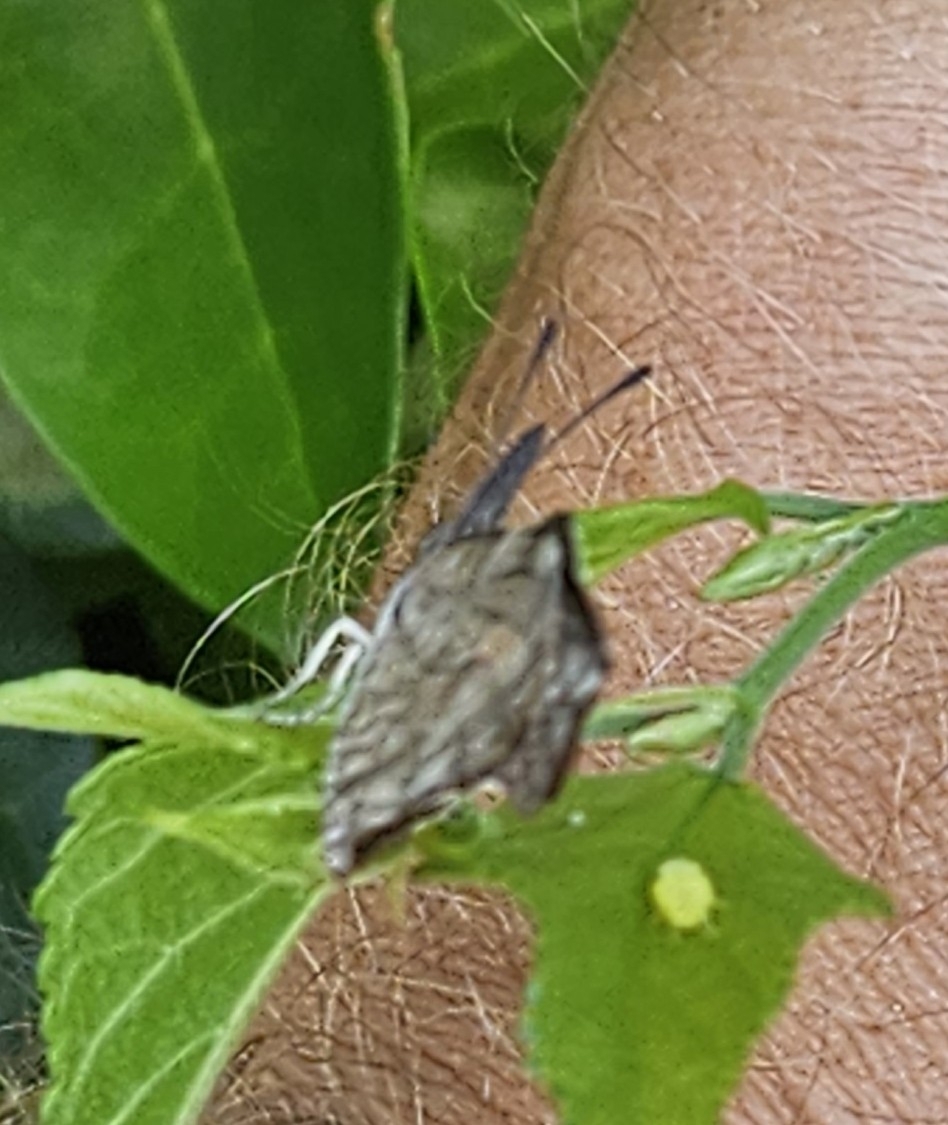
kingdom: Animalia
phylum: Arthropoda
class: Insecta
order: Lepidoptera
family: Nymphalidae
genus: Libytheana
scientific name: Libytheana carinenta
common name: American snout
